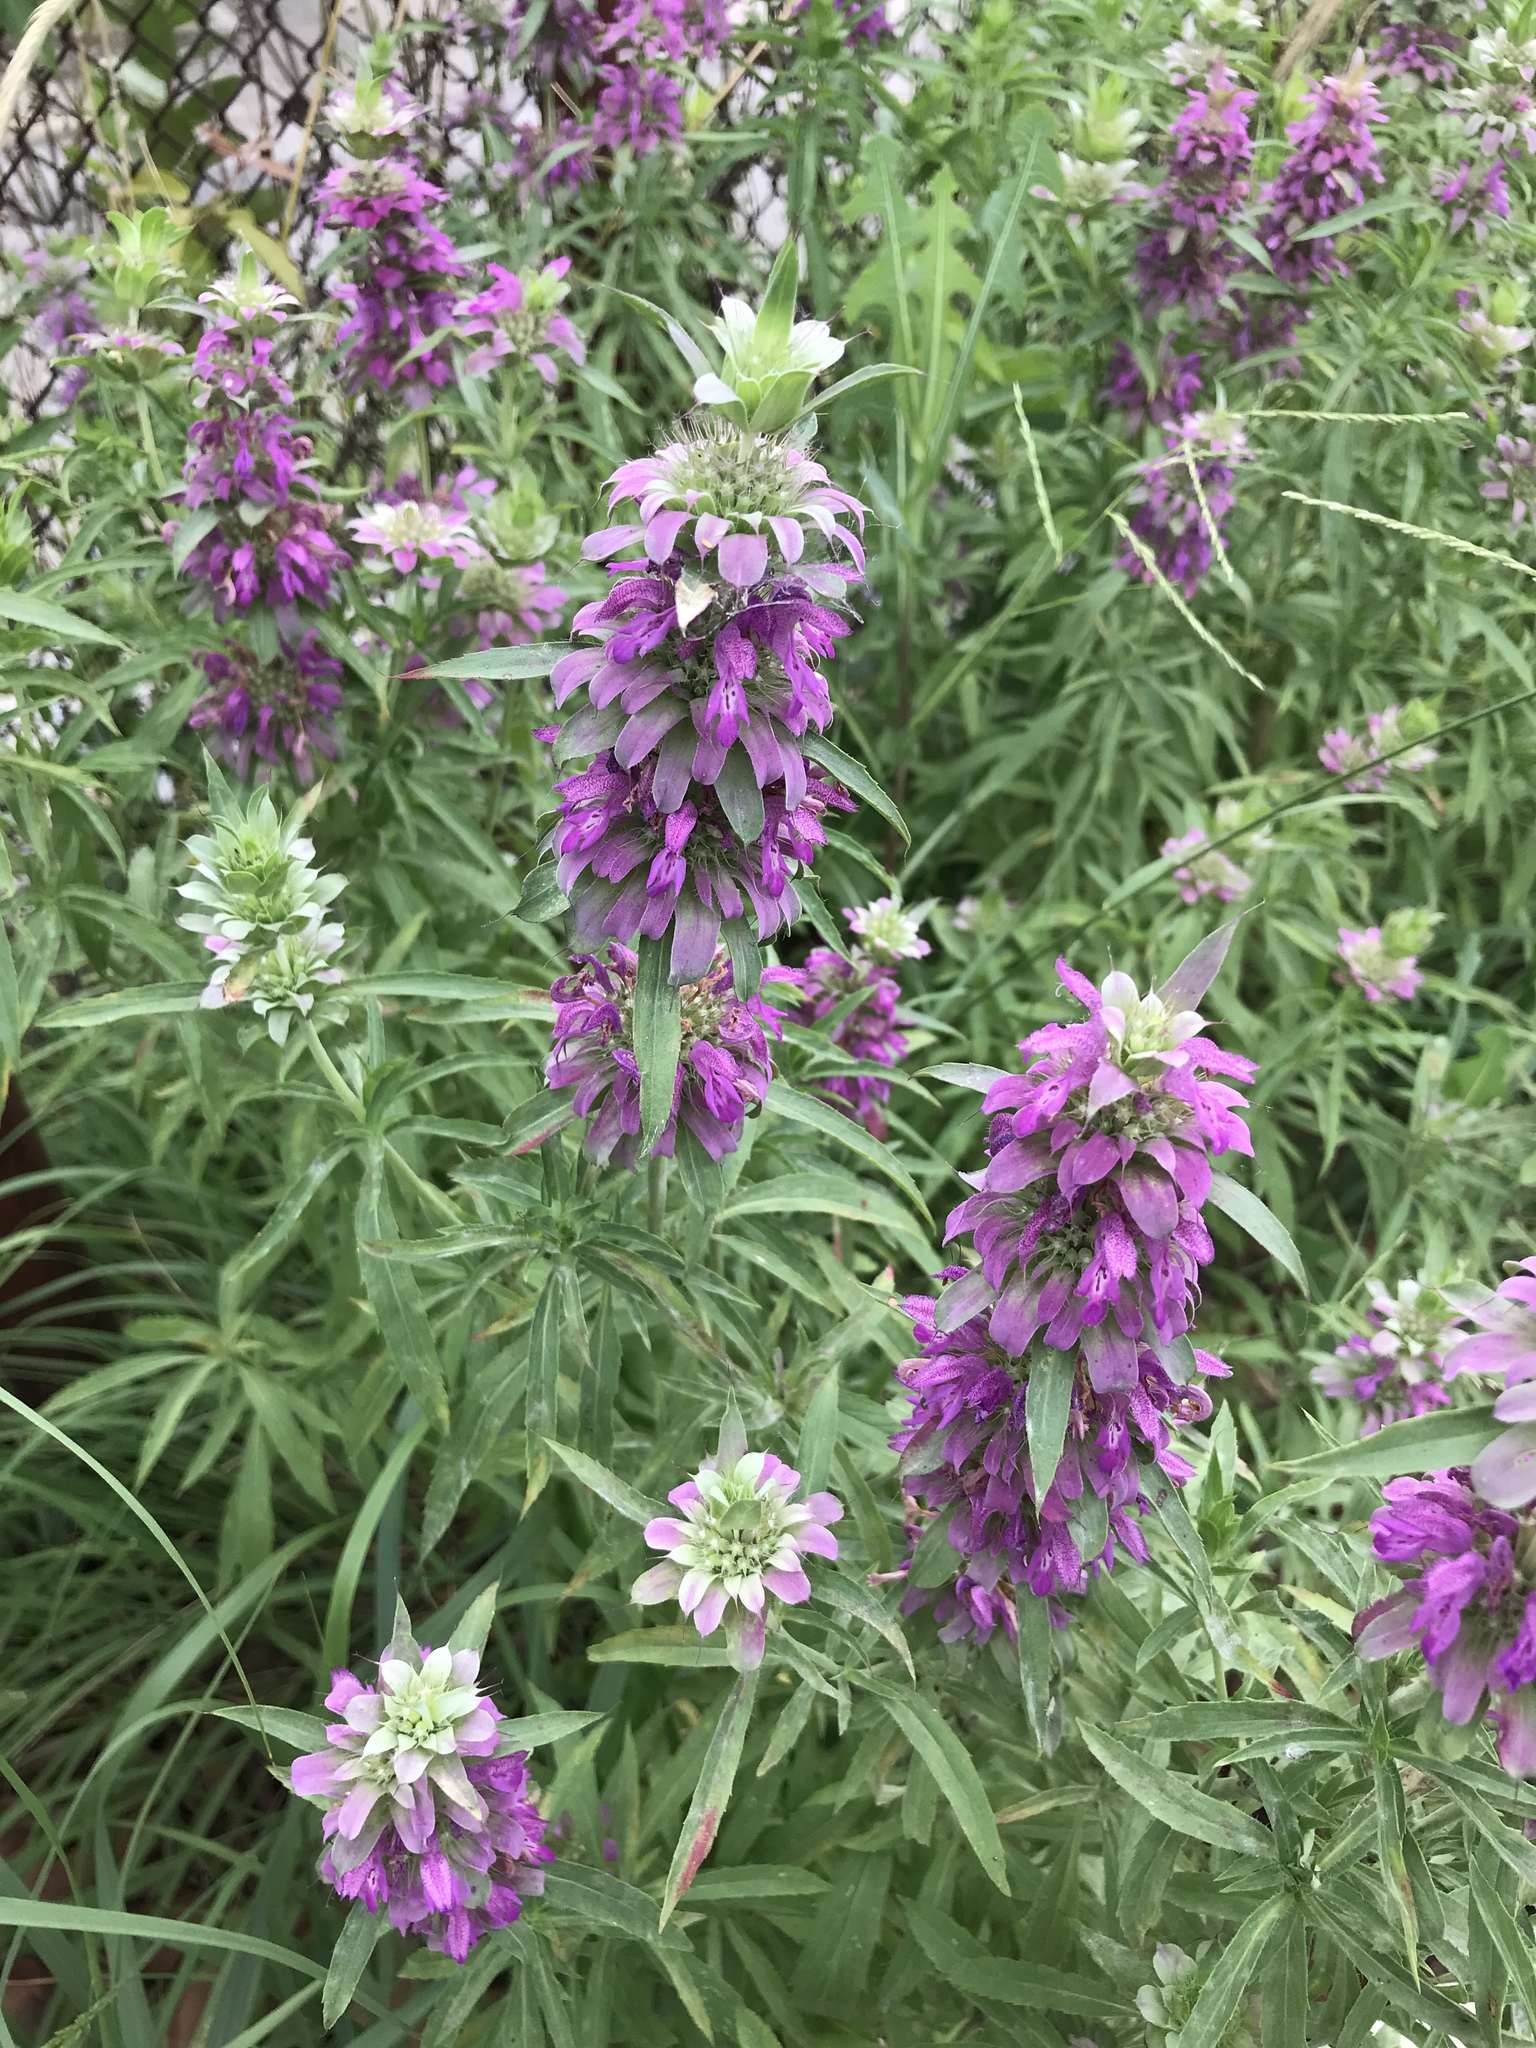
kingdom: Plantae
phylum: Tracheophyta
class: Magnoliopsida
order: Lamiales
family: Lamiaceae
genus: Monarda
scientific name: Monarda citriodora
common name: Lemon beebalm
